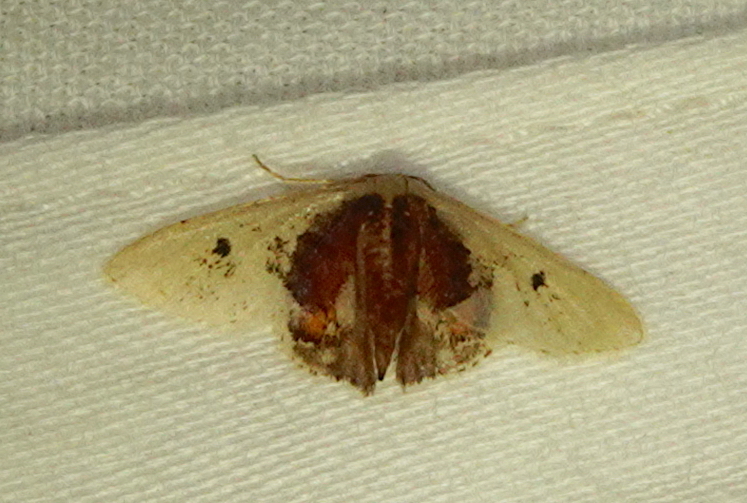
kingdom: Animalia
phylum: Arthropoda
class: Insecta
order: Lepidoptera
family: Geometridae
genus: Idaea
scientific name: Idaea rosinaria
